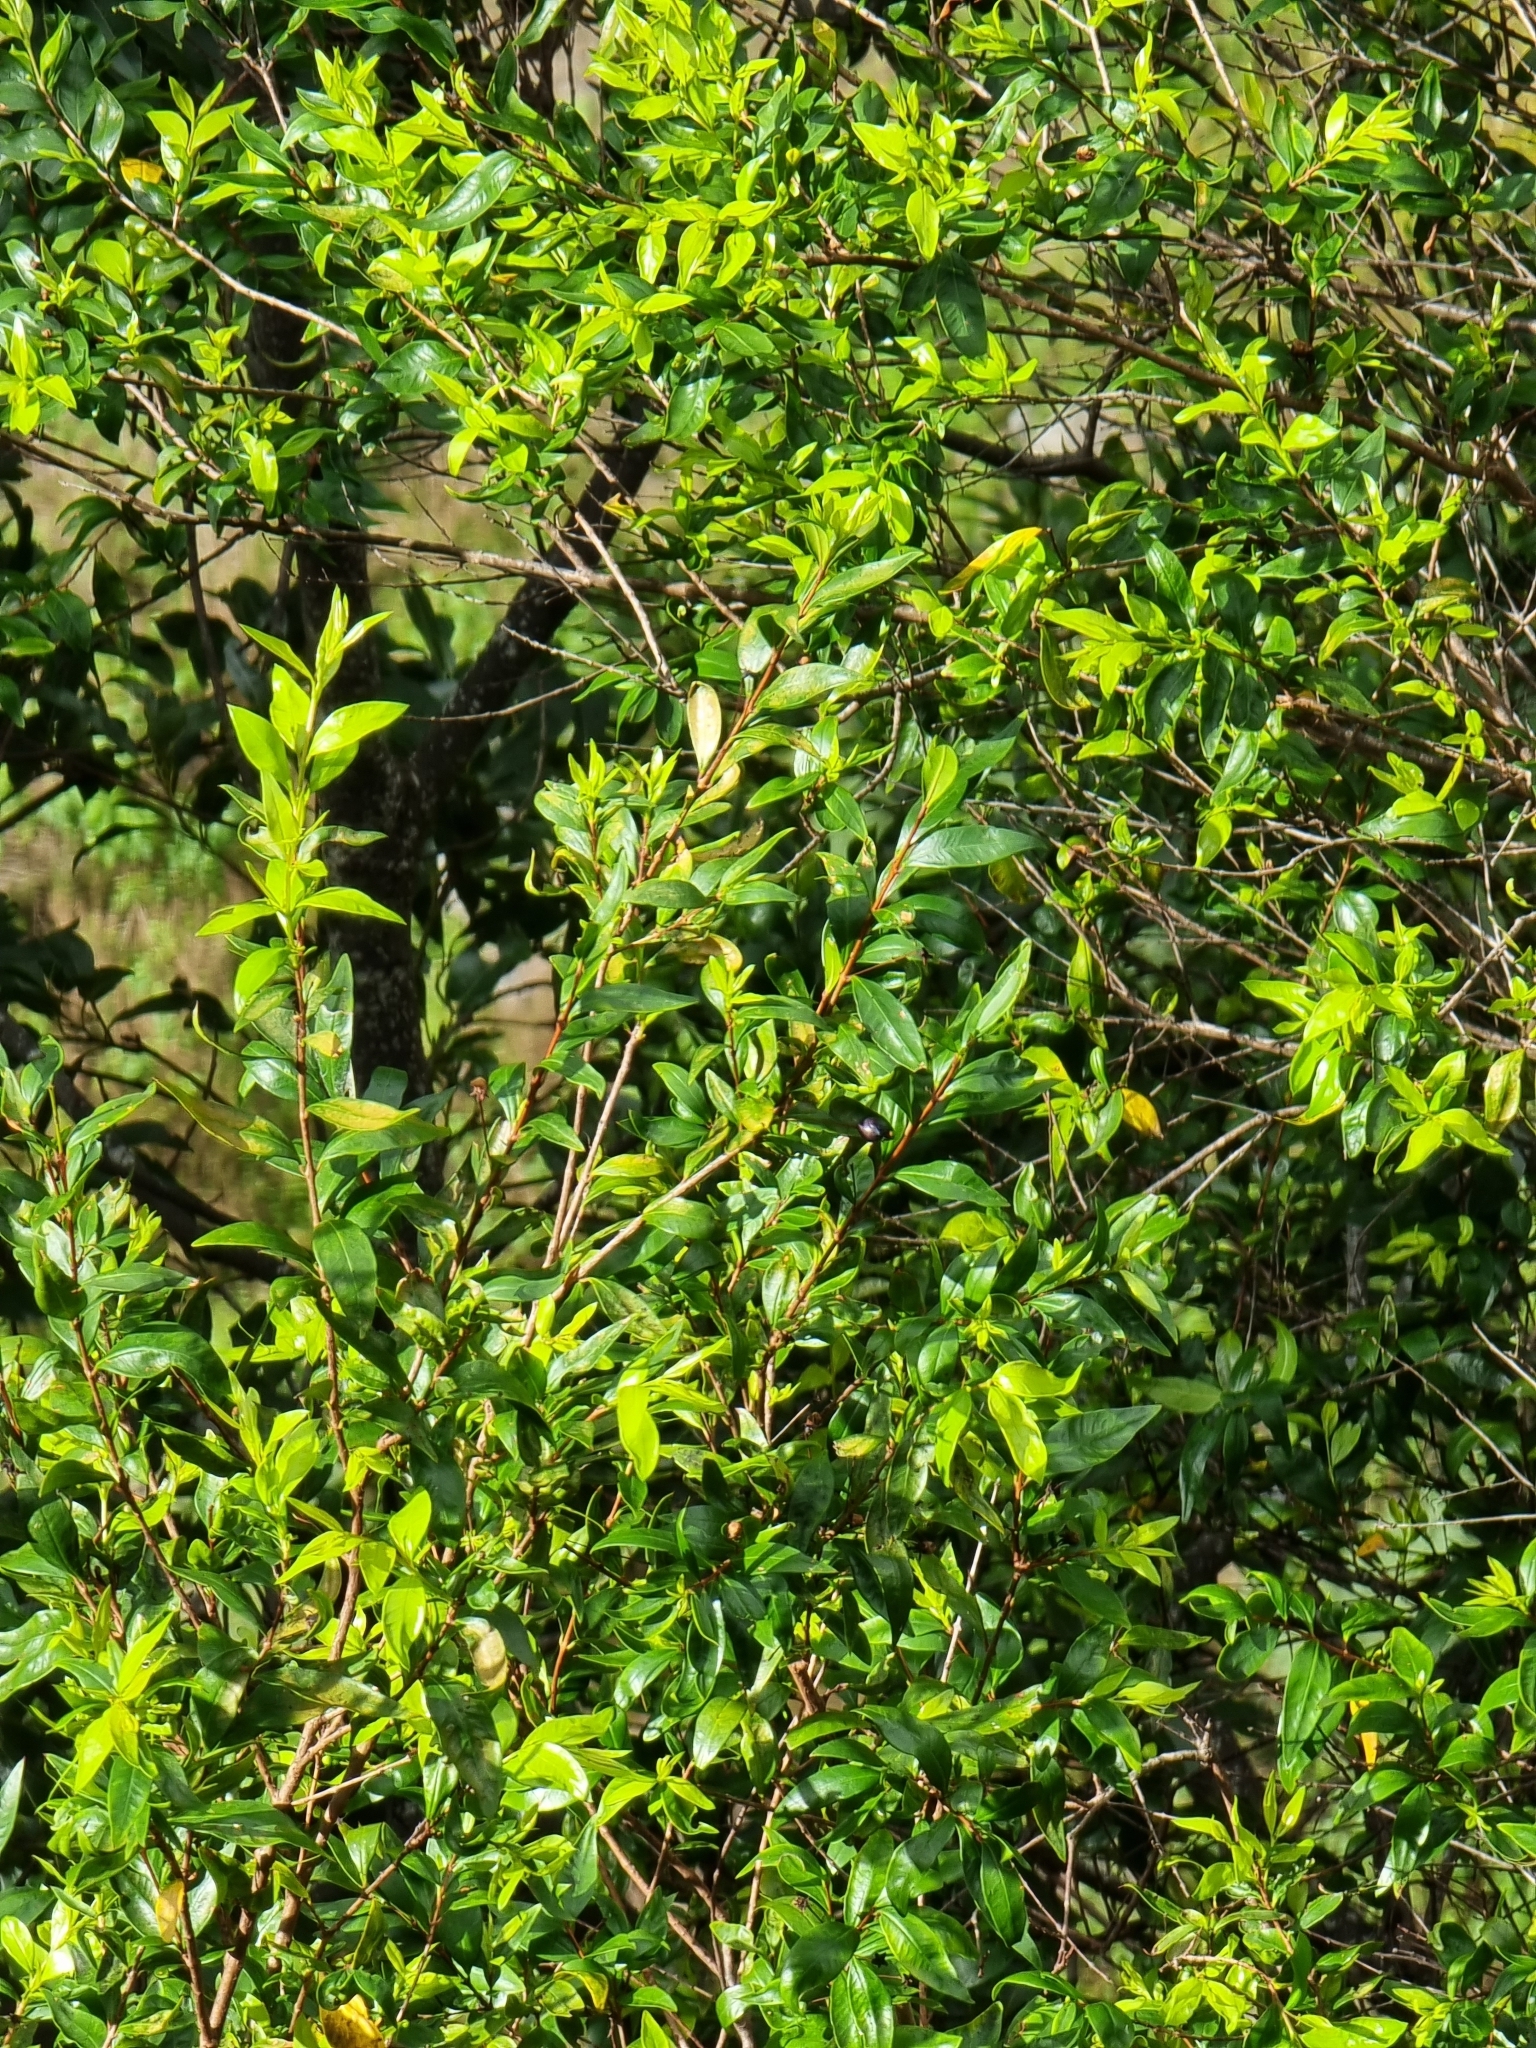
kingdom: Plantae
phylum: Tracheophyta
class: Magnoliopsida
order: Myrtales
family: Myrtaceae
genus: Myrtus
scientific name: Myrtus communis
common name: Myrtle
